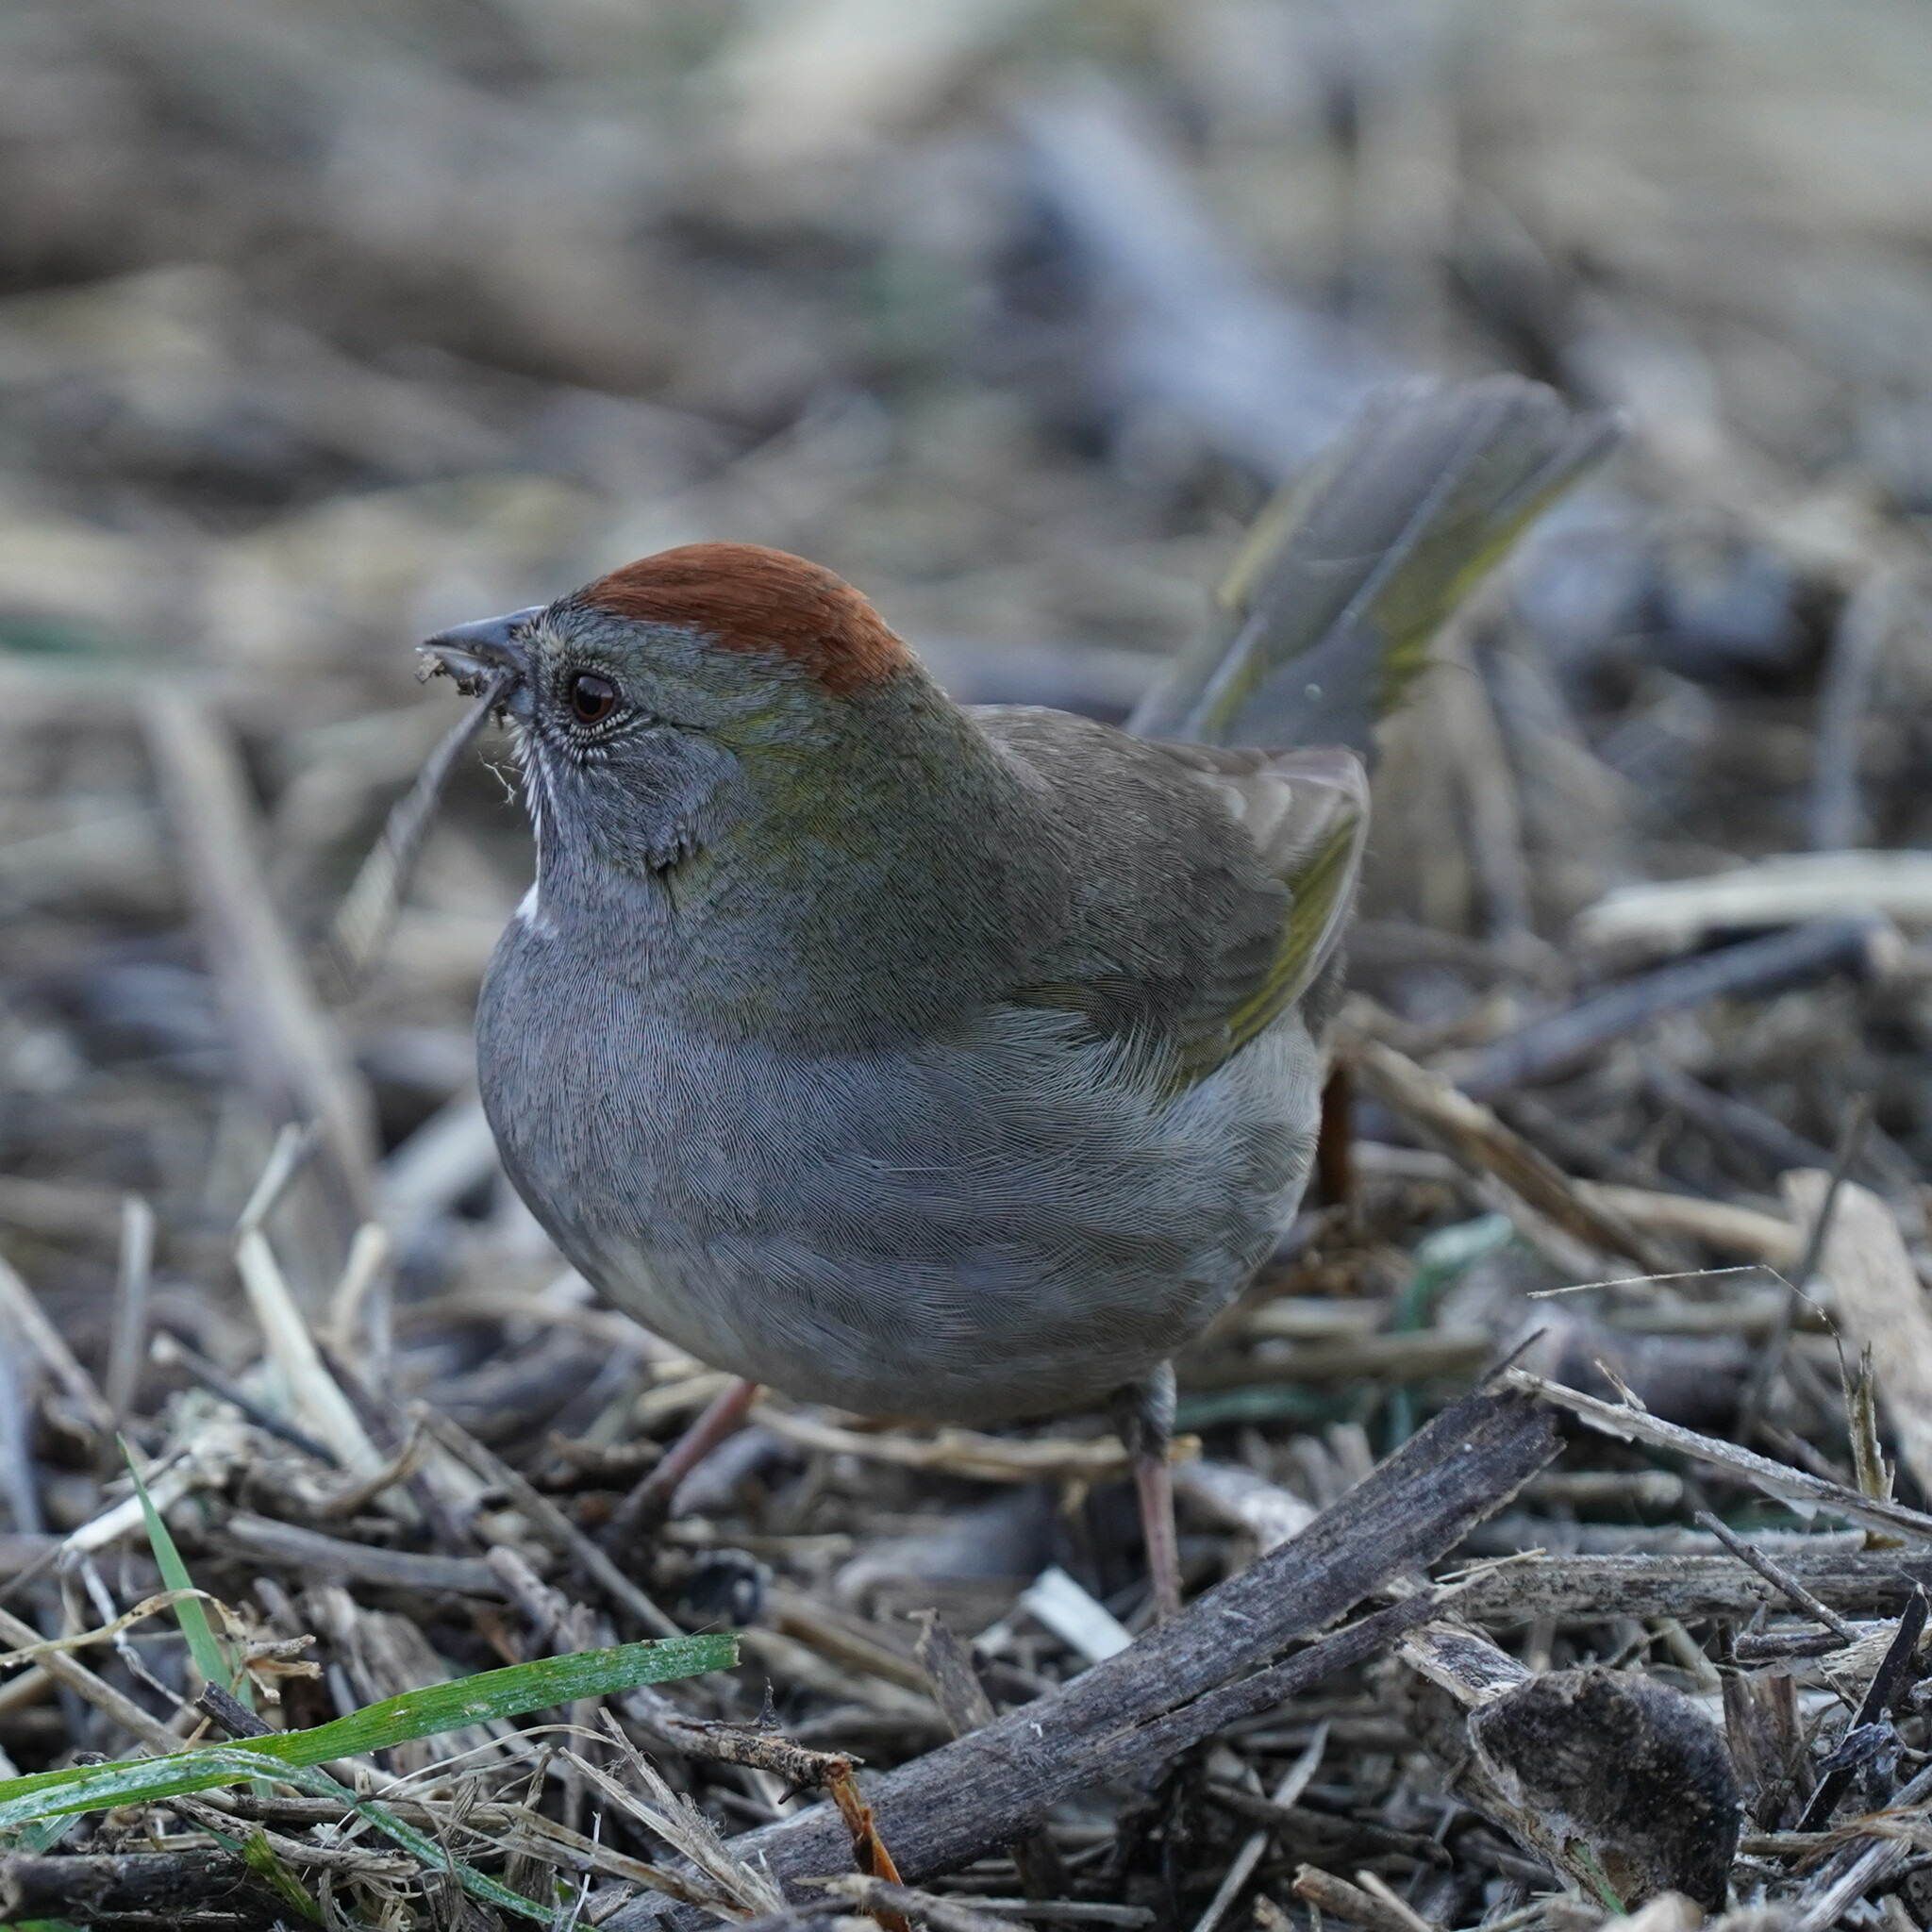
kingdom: Animalia
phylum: Chordata
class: Aves
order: Passeriformes
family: Passerellidae
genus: Pipilo
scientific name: Pipilo chlorurus
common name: Green-tailed towhee
